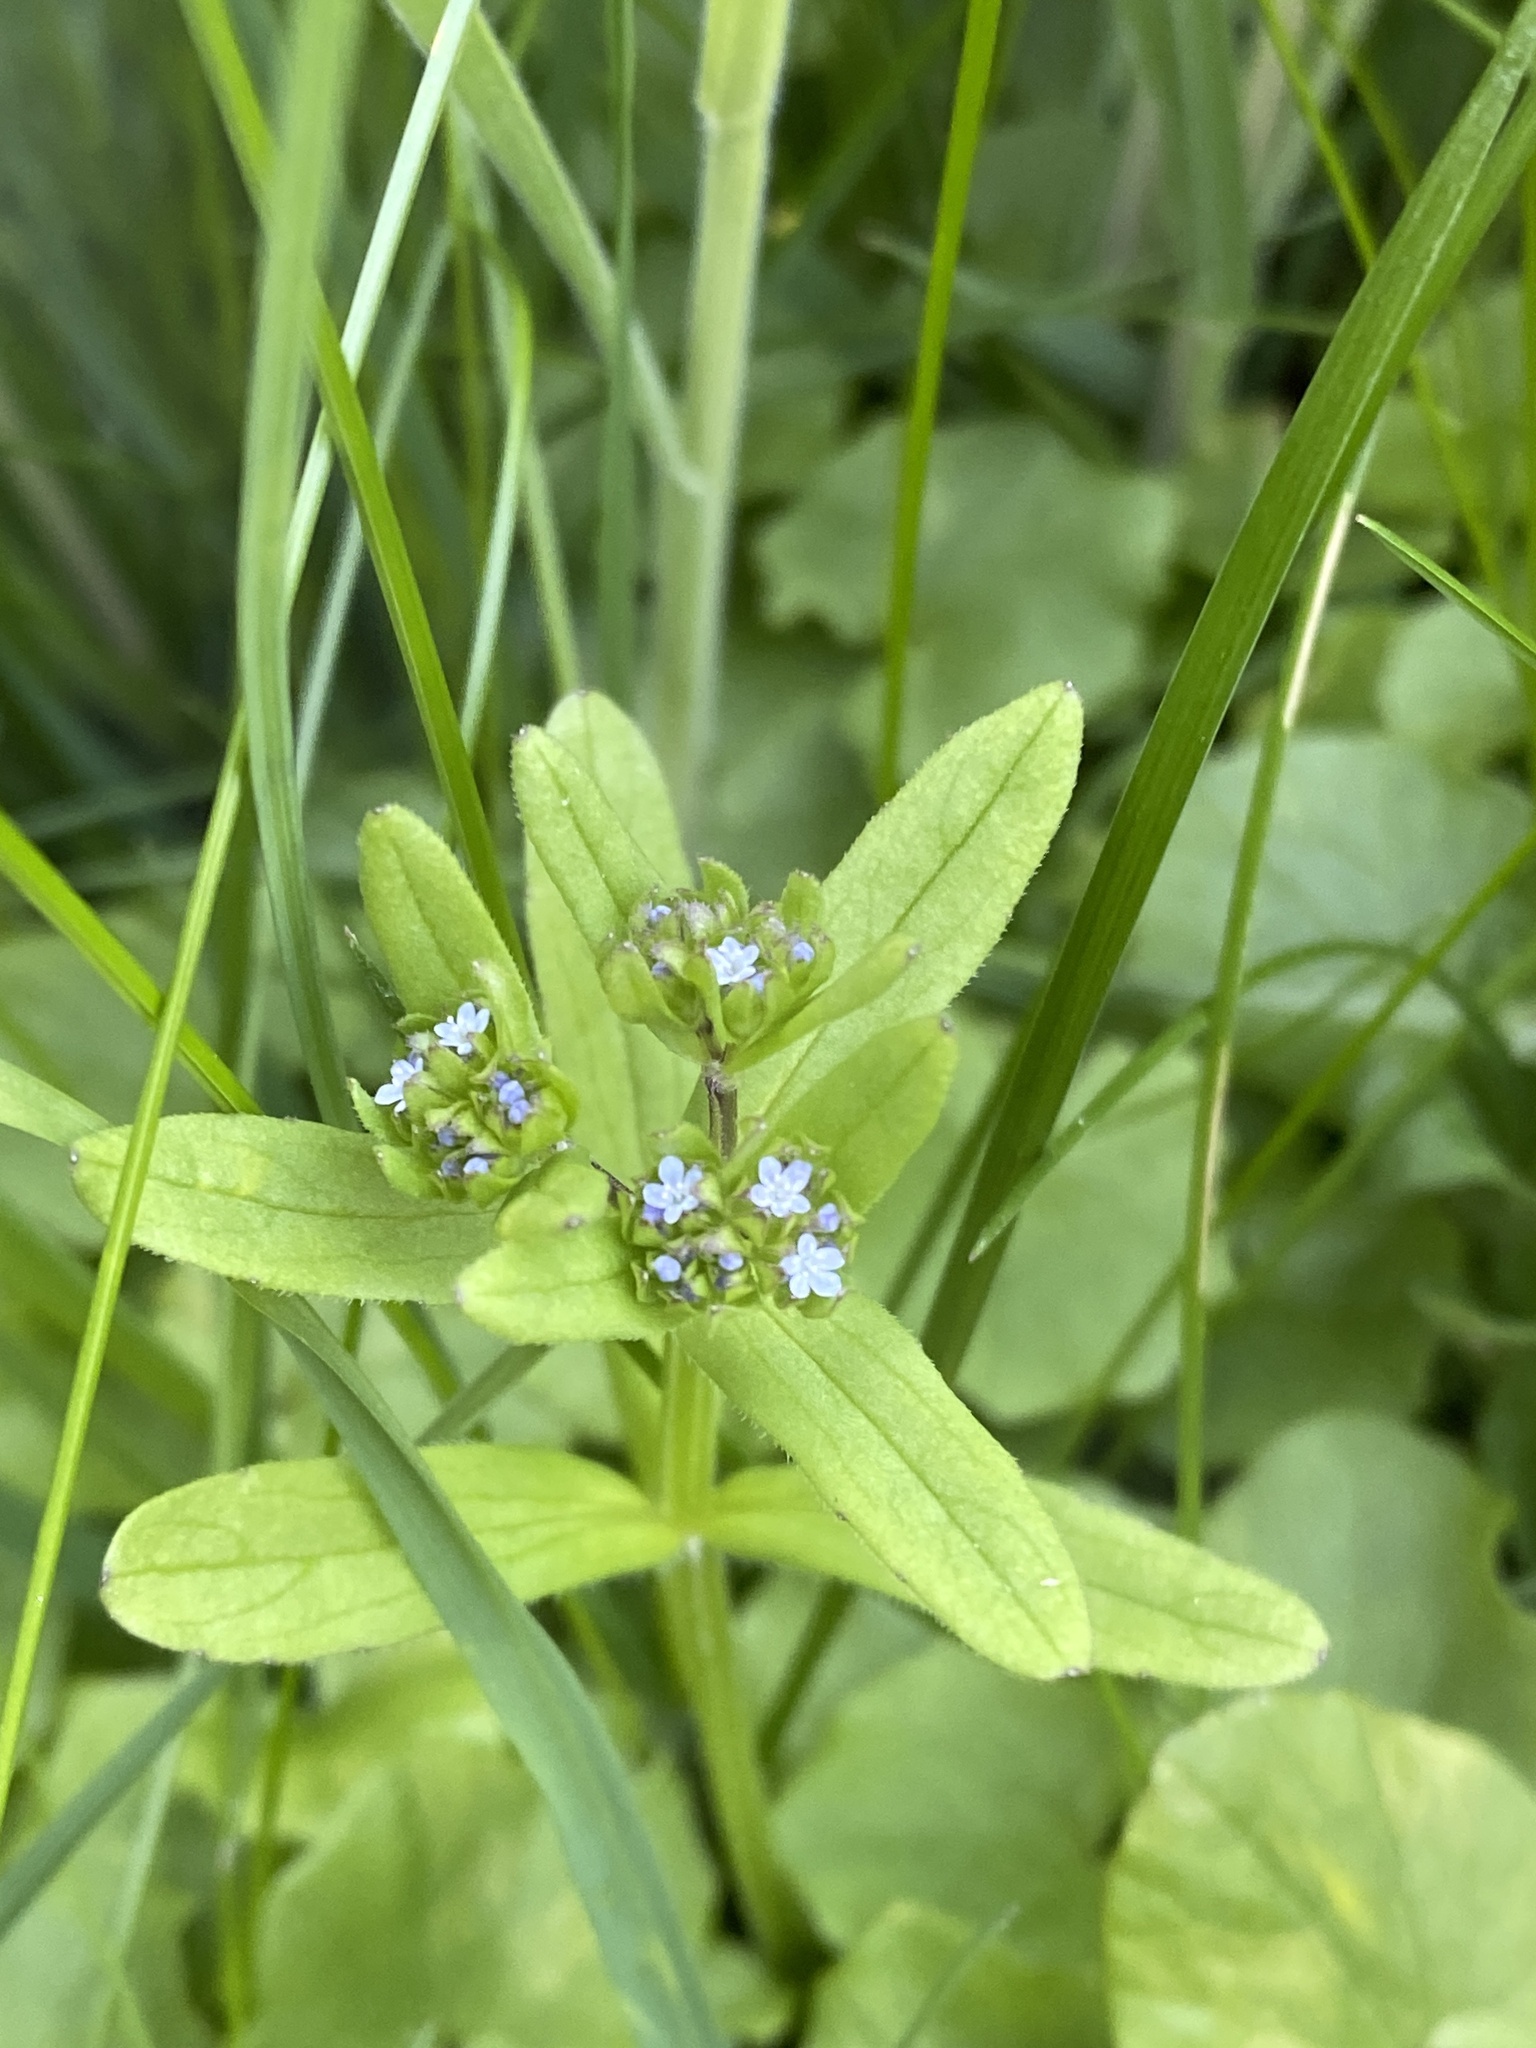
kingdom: Plantae
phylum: Tracheophyta
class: Magnoliopsida
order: Dipsacales
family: Caprifoliaceae
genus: Valerianella
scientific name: Valerianella locusta
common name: Common cornsalad
